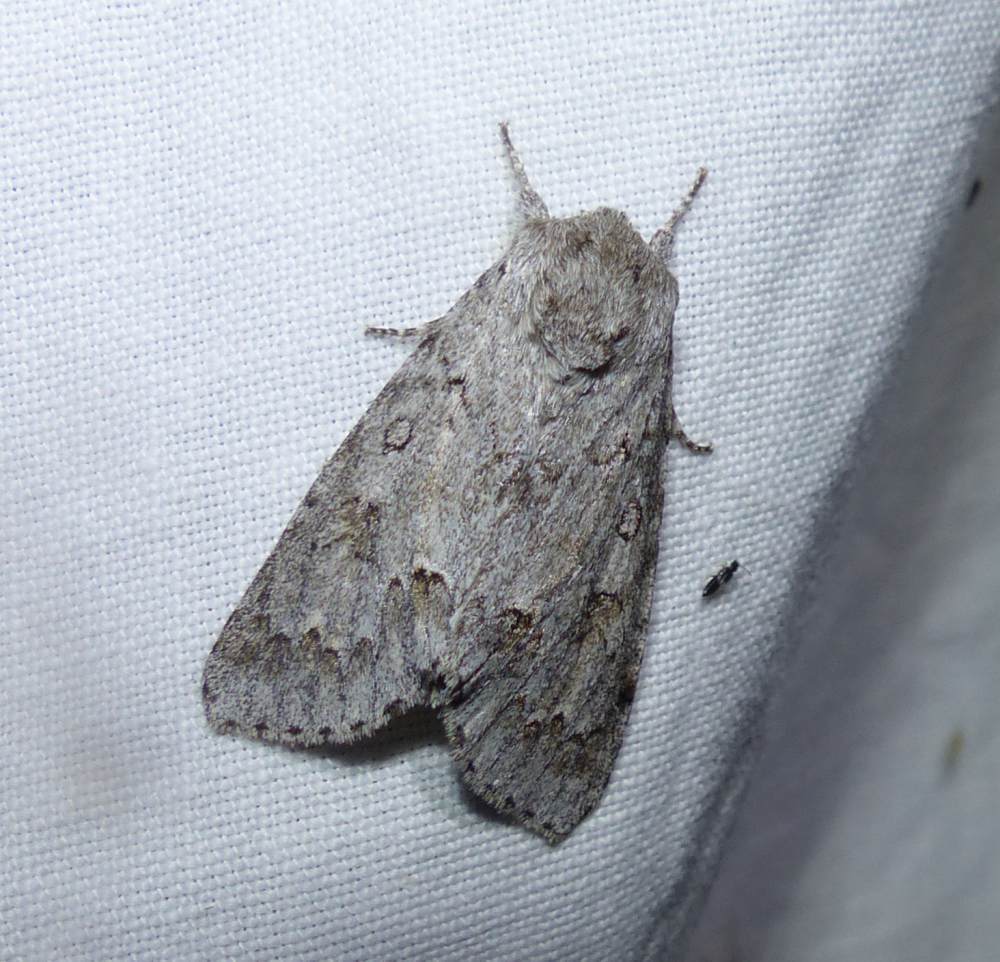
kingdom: Animalia
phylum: Arthropoda
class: Insecta
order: Lepidoptera
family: Noctuidae
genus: Acronicta
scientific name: Acronicta insita
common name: Large gray dagger
